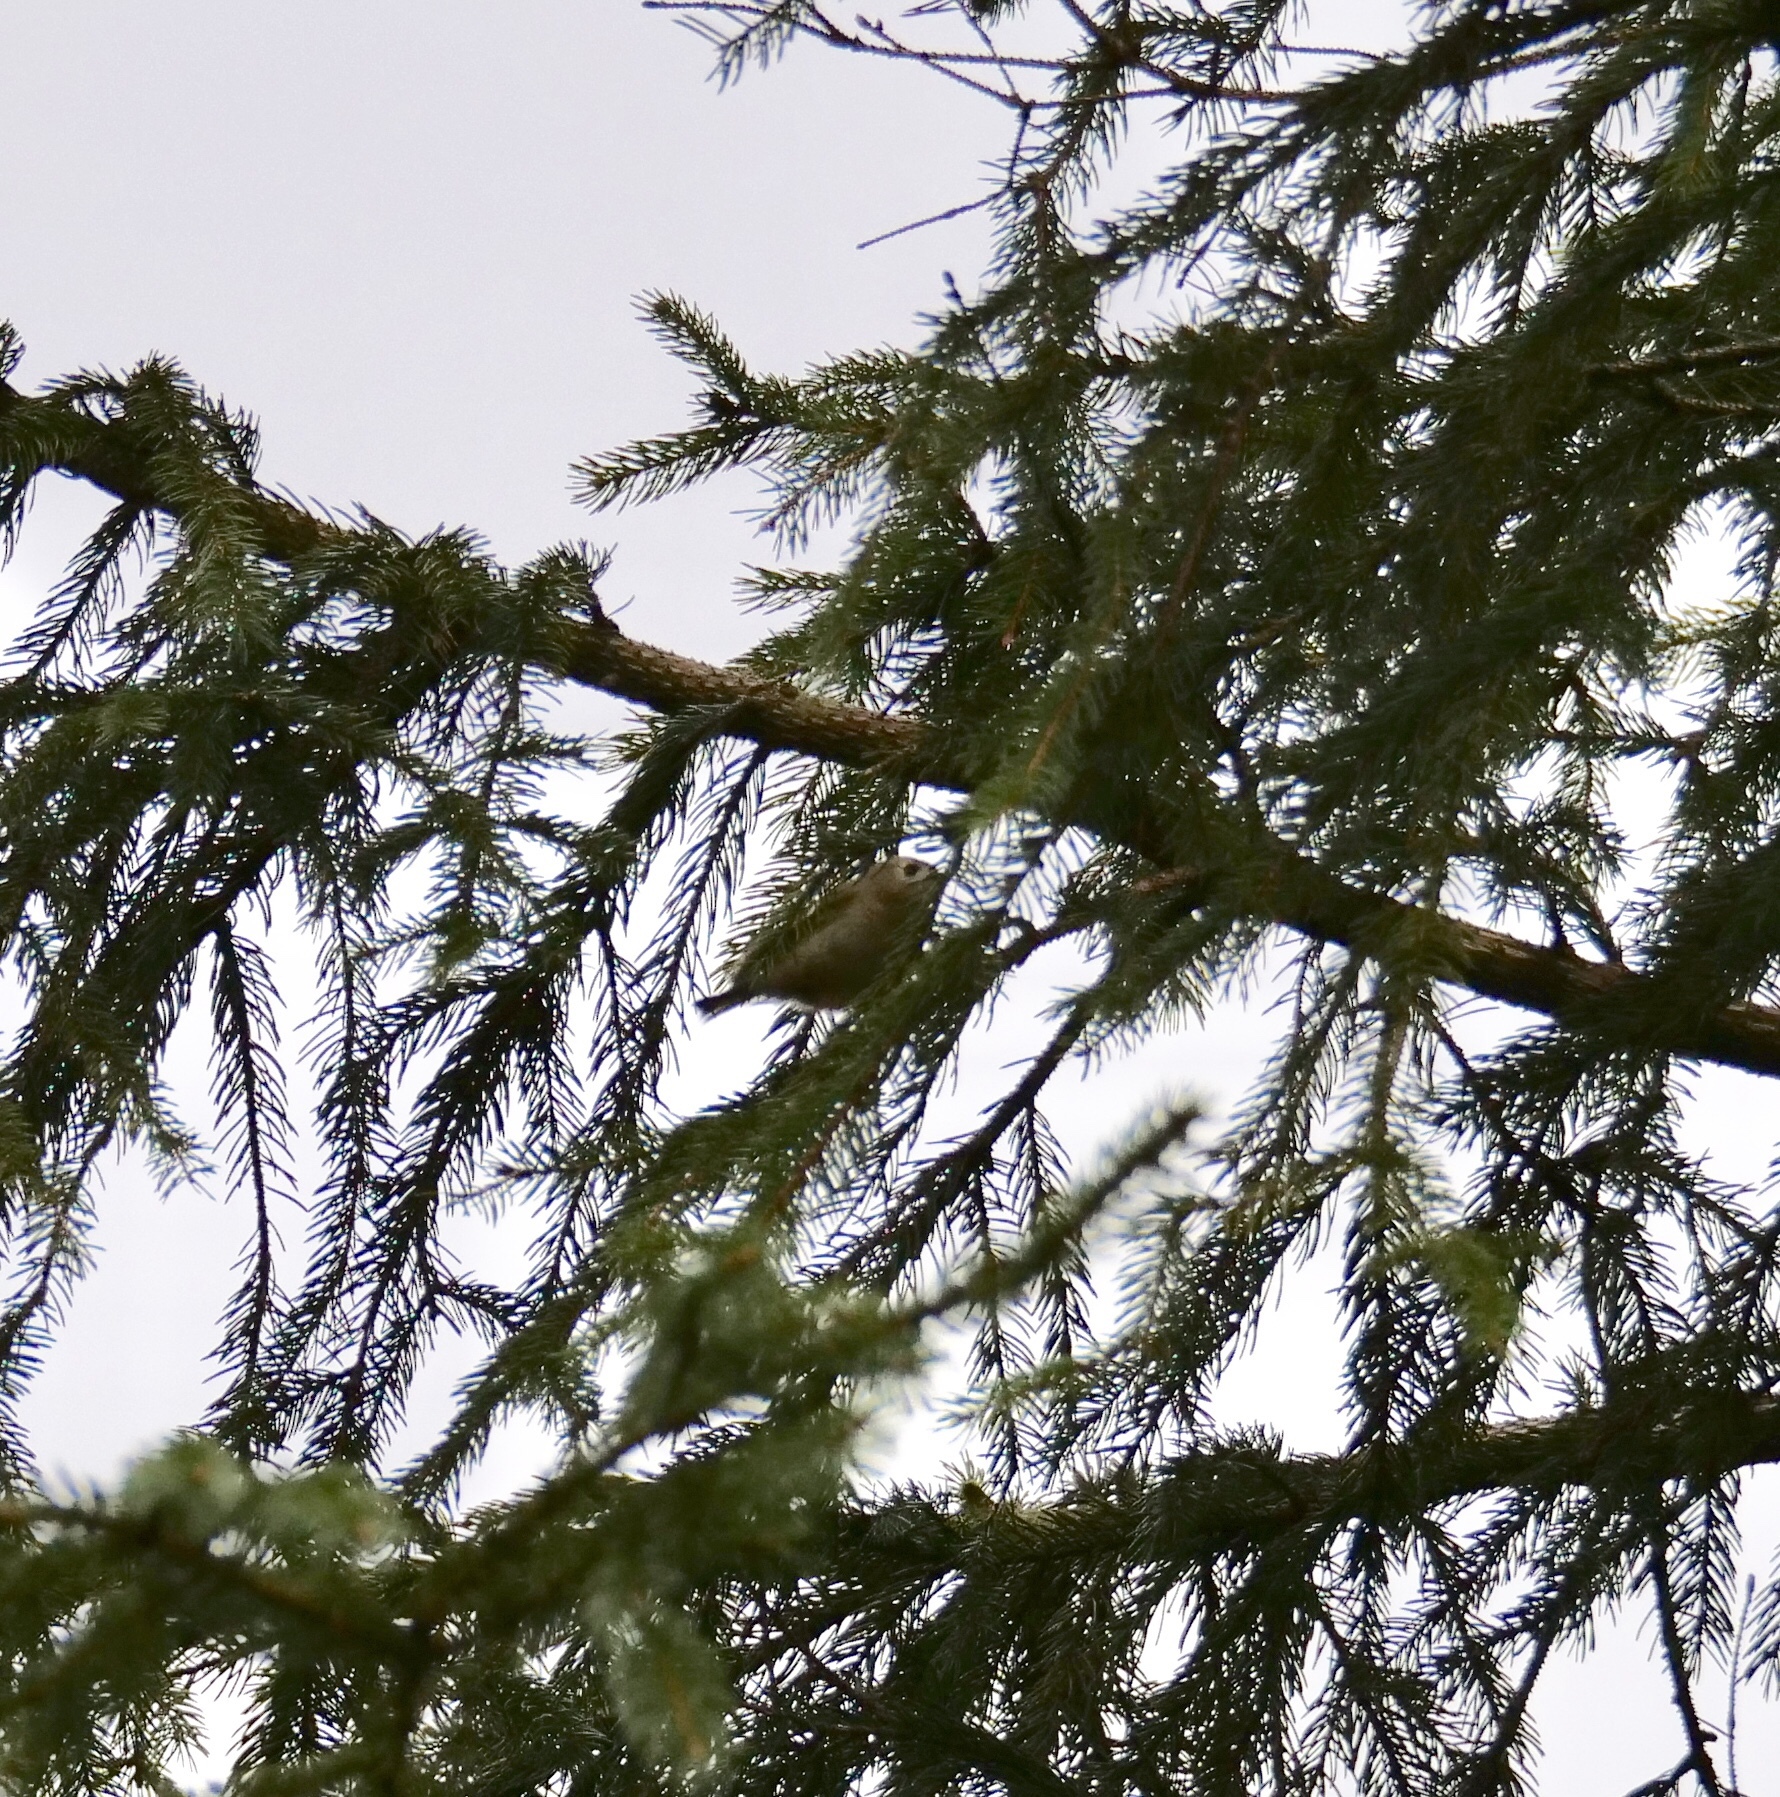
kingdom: Animalia
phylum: Chordata
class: Aves
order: Passeriformes
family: Regulidae
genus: Regulus
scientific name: Regulus regulus
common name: Goldcrest
